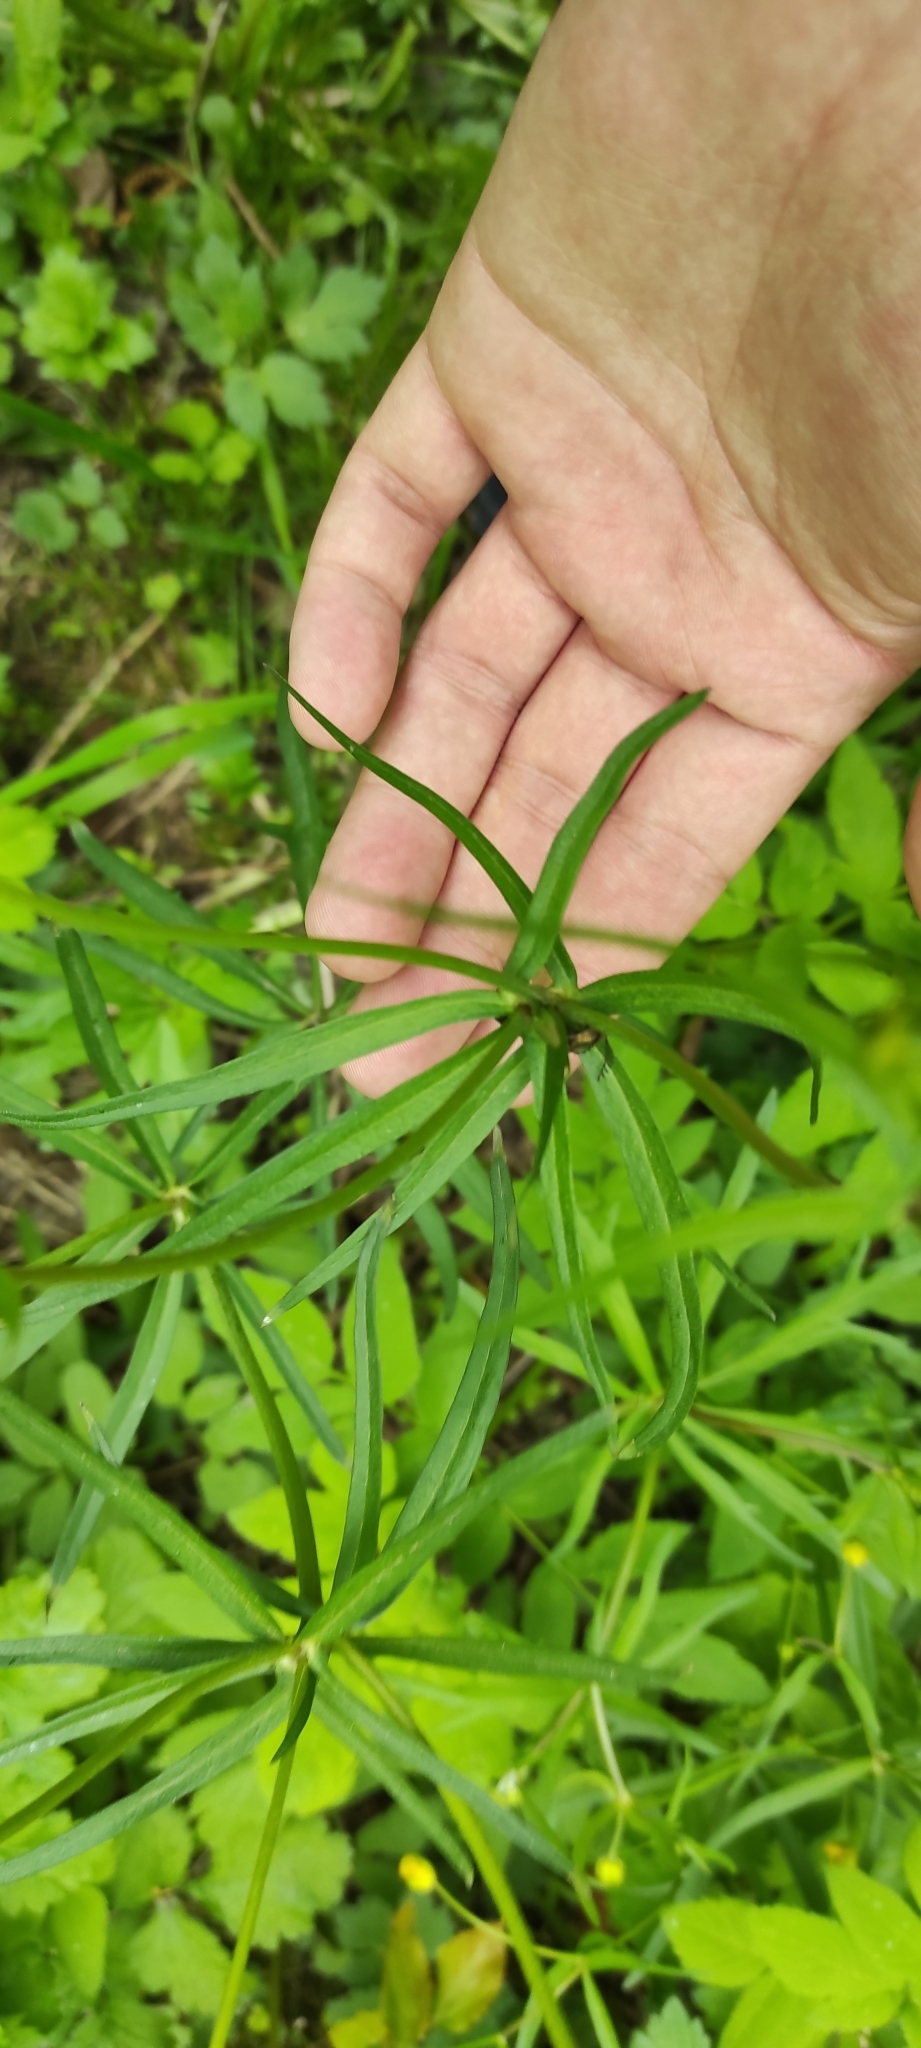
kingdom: Plantae
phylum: Tracheophyta
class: Magnoliopsida
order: Ranunculales
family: Ranunculaceae
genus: Ranunculus
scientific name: Ranunculus auricomus
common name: Goldilocks buttercup
